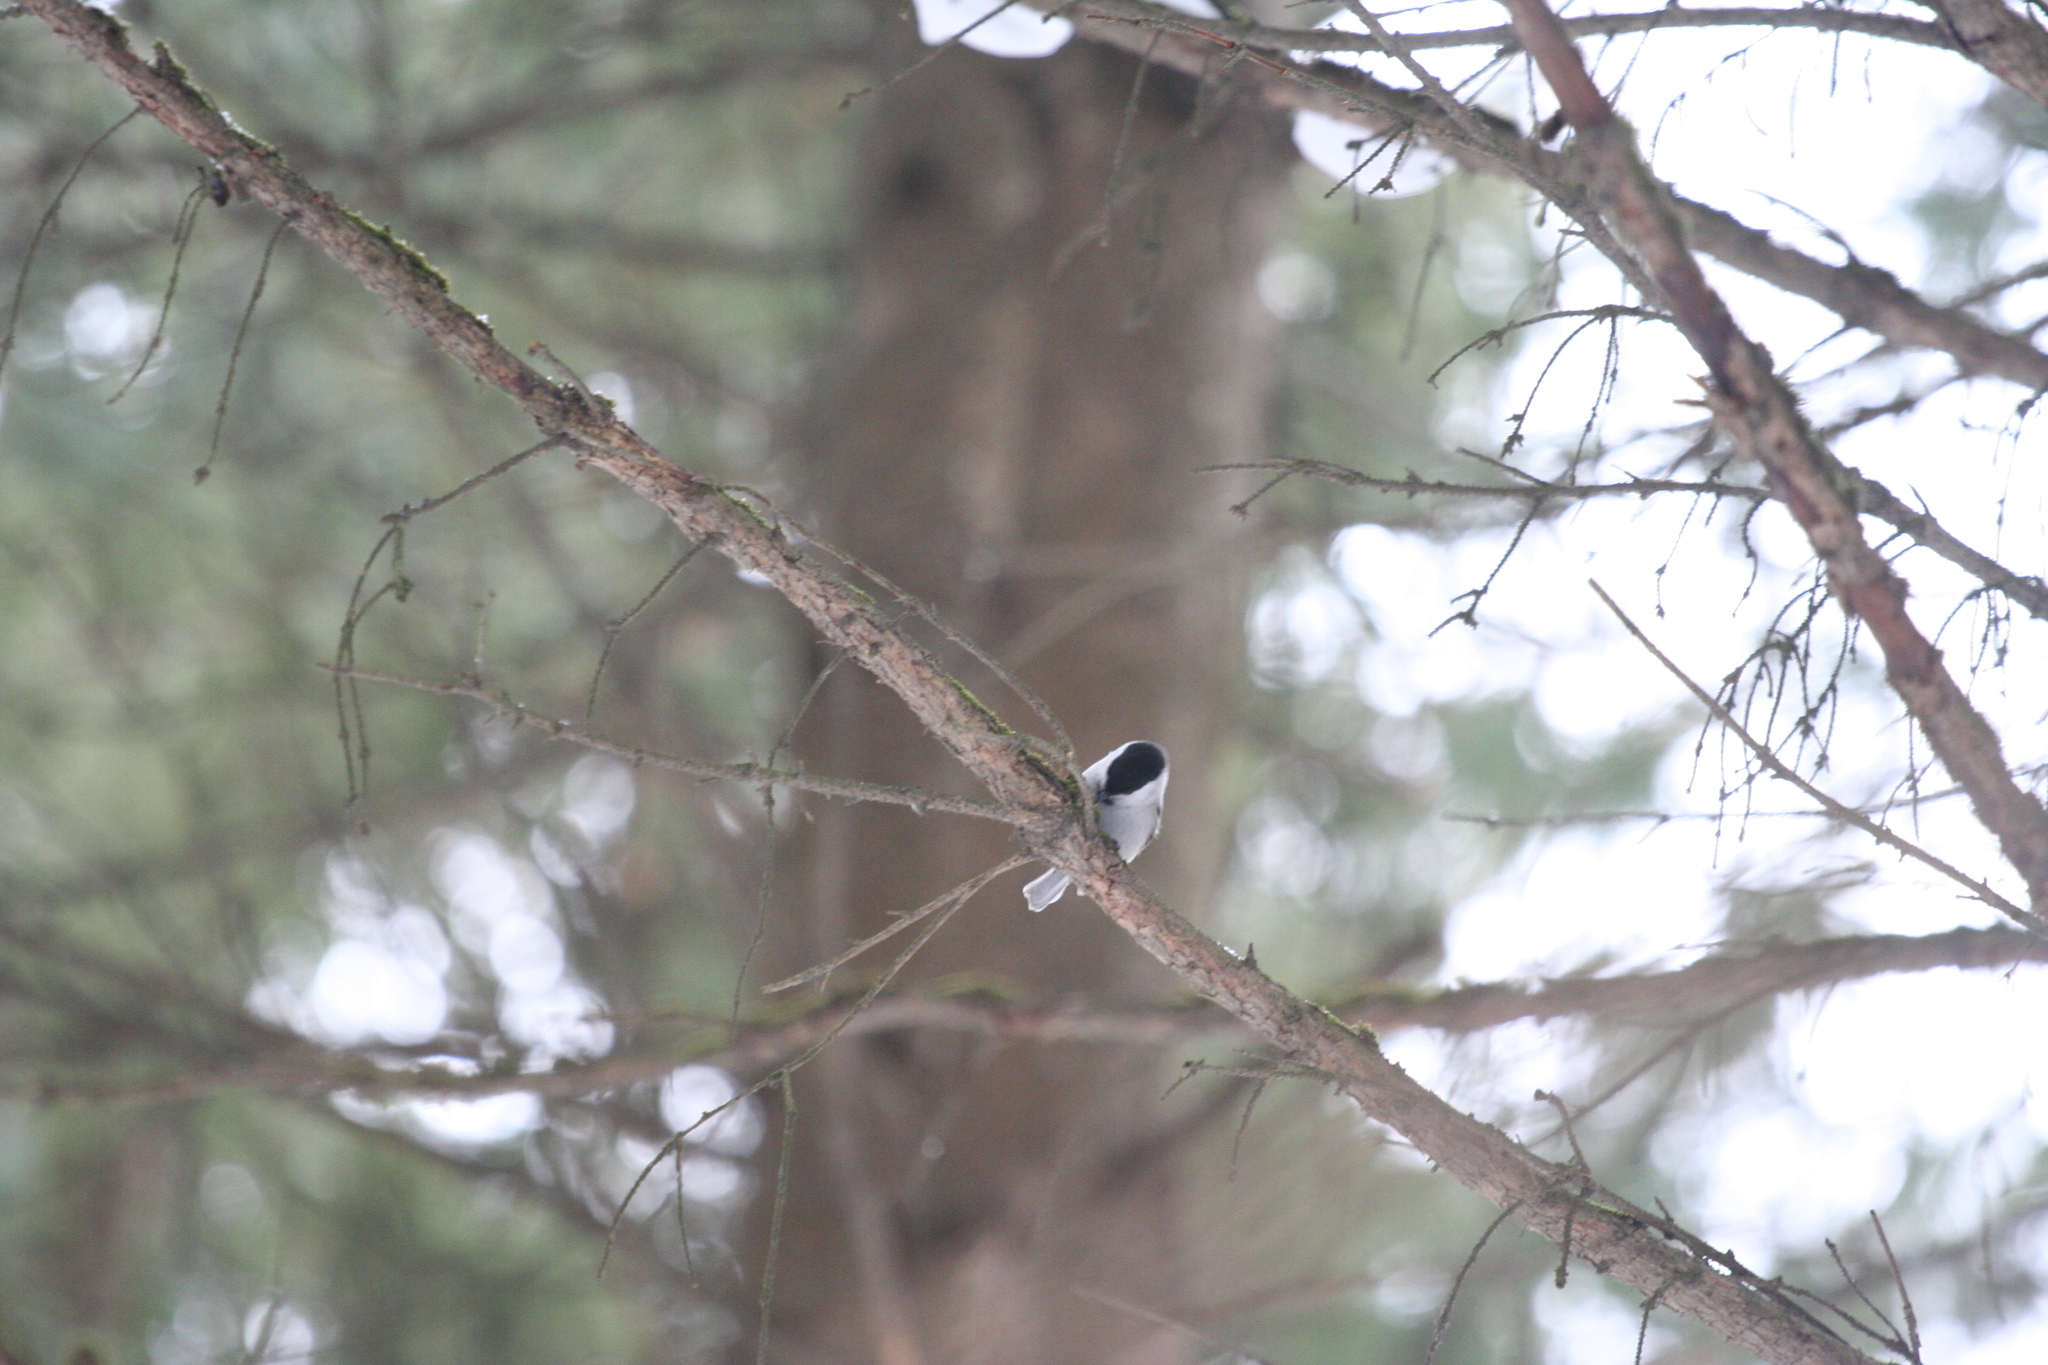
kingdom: Animalia
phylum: Chordata
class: Aves
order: Passeriformes
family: Paridae
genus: Poecile
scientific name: Poecile montanus
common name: Willow tit
